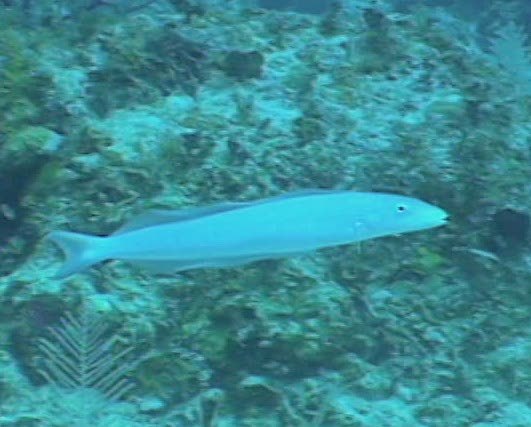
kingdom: Animalia
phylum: Chordata
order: Perciformes
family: Malacanthidae
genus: Malacanthus
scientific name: Malacanthus plumieri
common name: Sand tilefish
